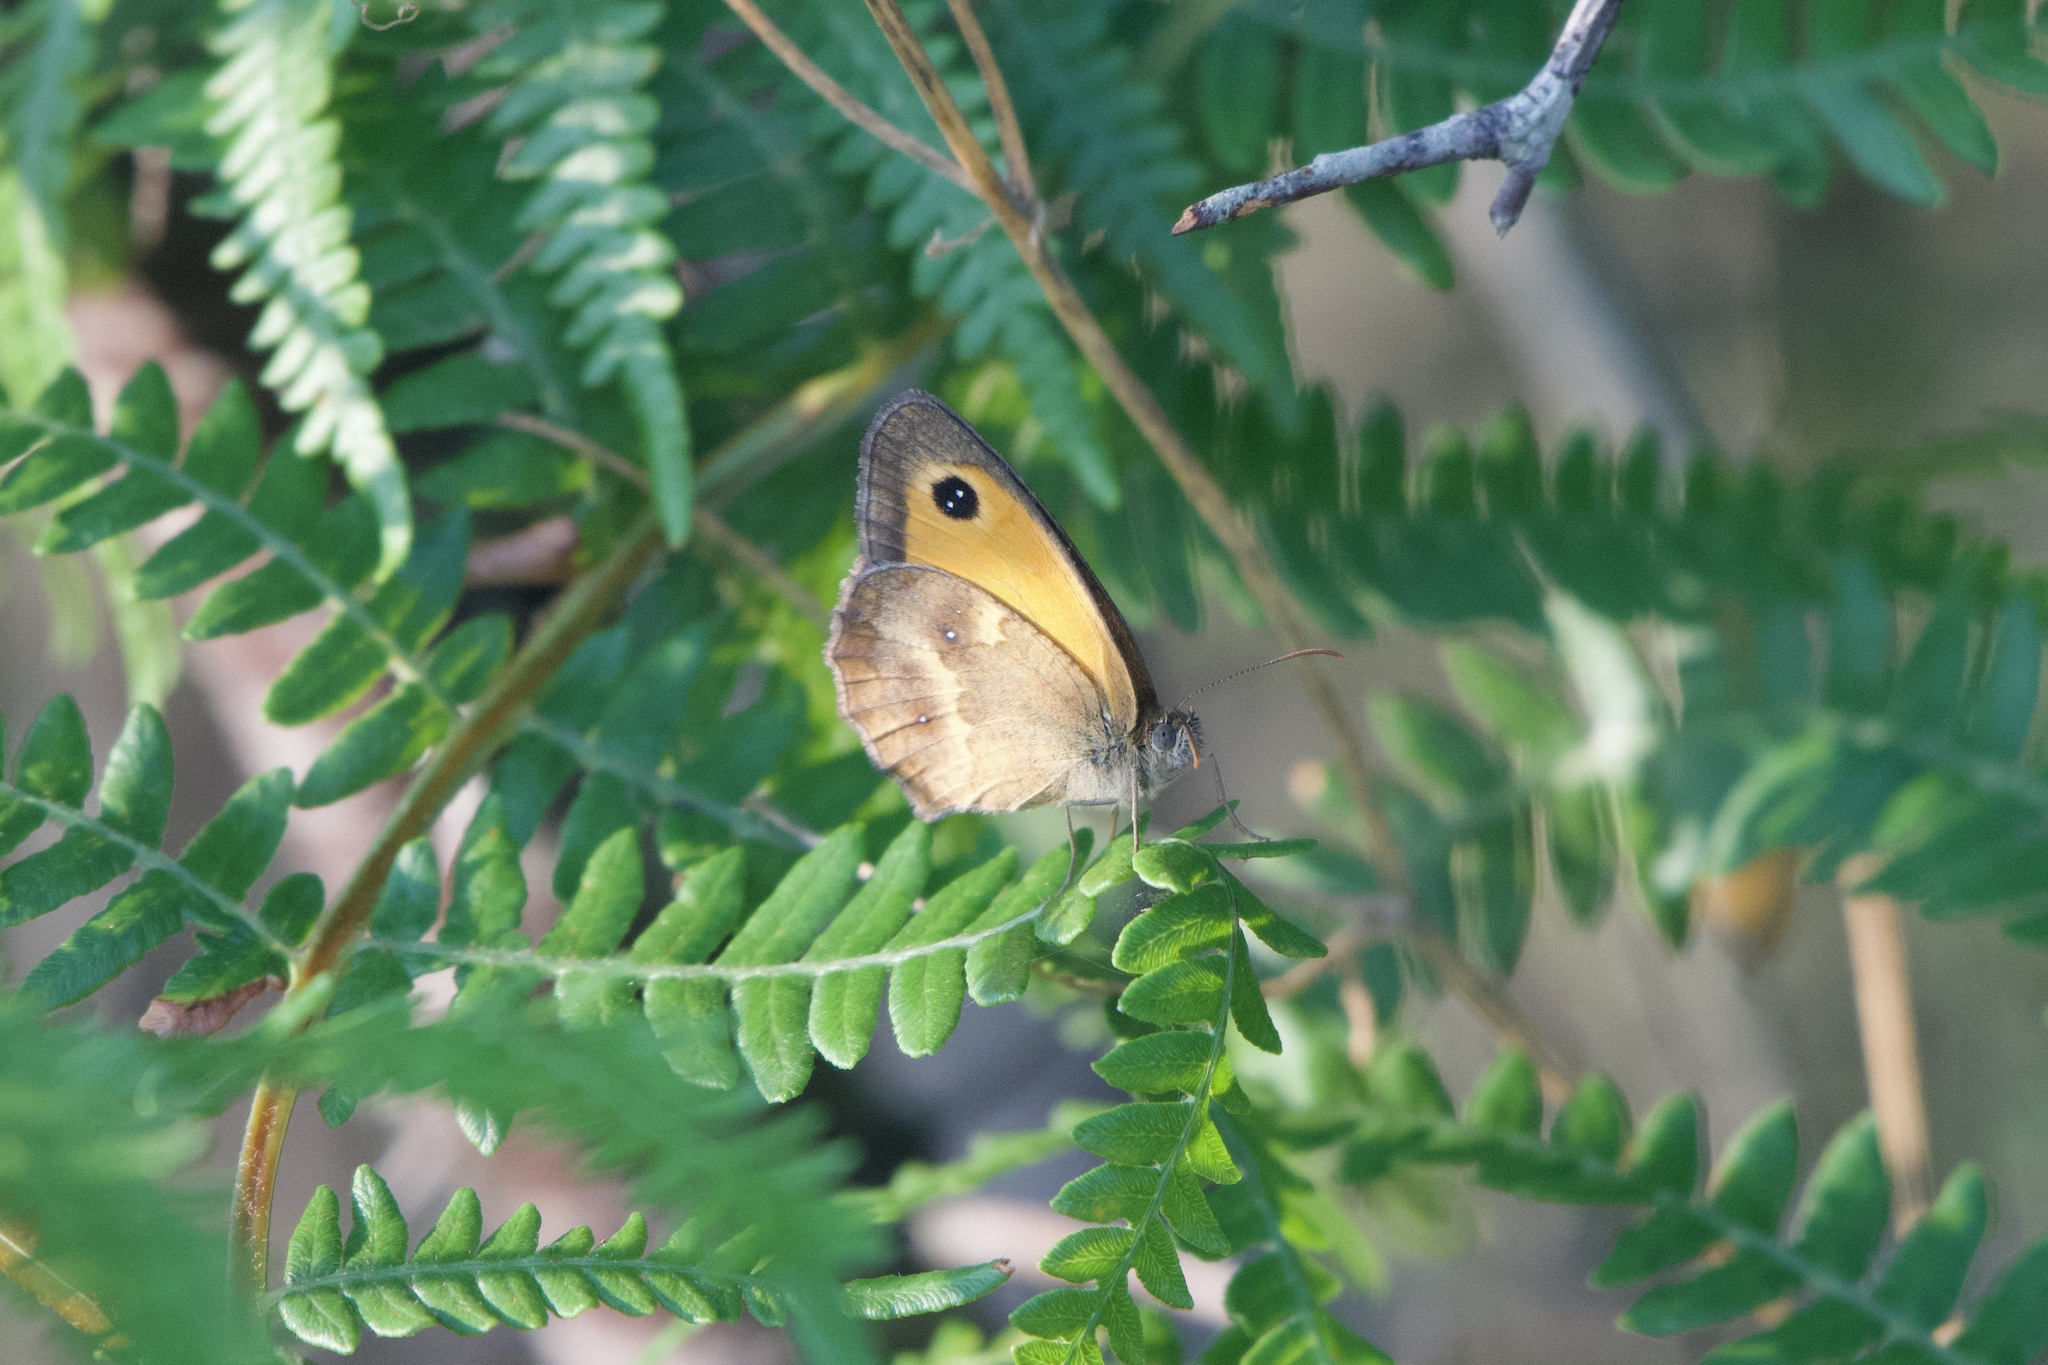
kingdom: Animalia
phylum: Arthropoda
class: Insecta
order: Lepidoptera
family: Nymphalidae
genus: Pyronia
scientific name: Pyronia tithonus
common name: Gatekeeper
